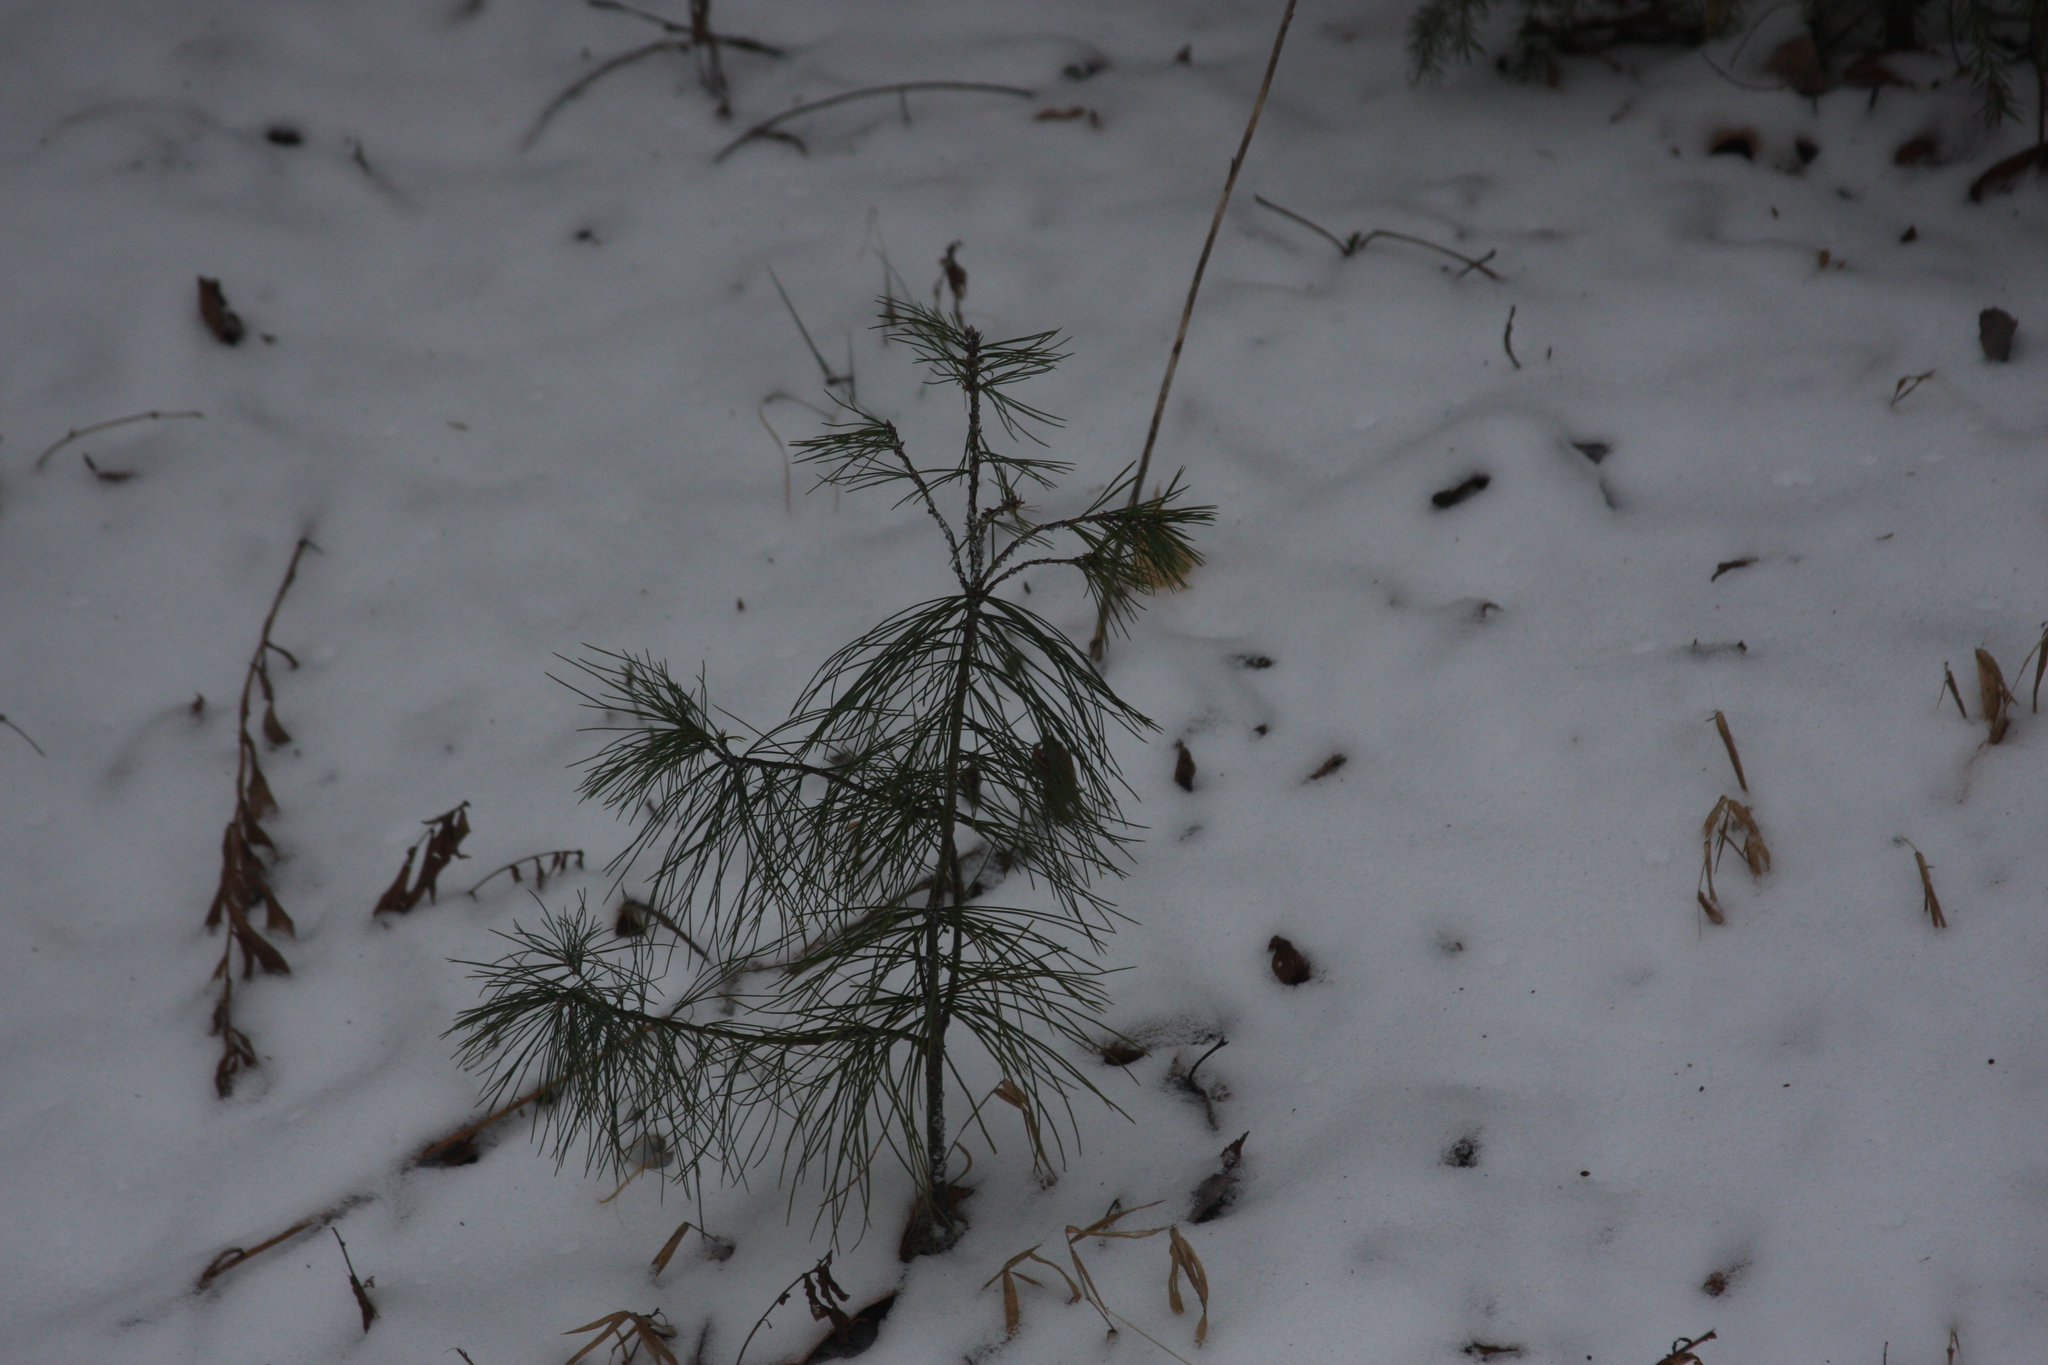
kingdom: Plantae
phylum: Tracheophyta
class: Pinopsida
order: Pinales
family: Pinaceae
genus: Pinus
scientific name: Pinus strobus
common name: Weymouth pine
